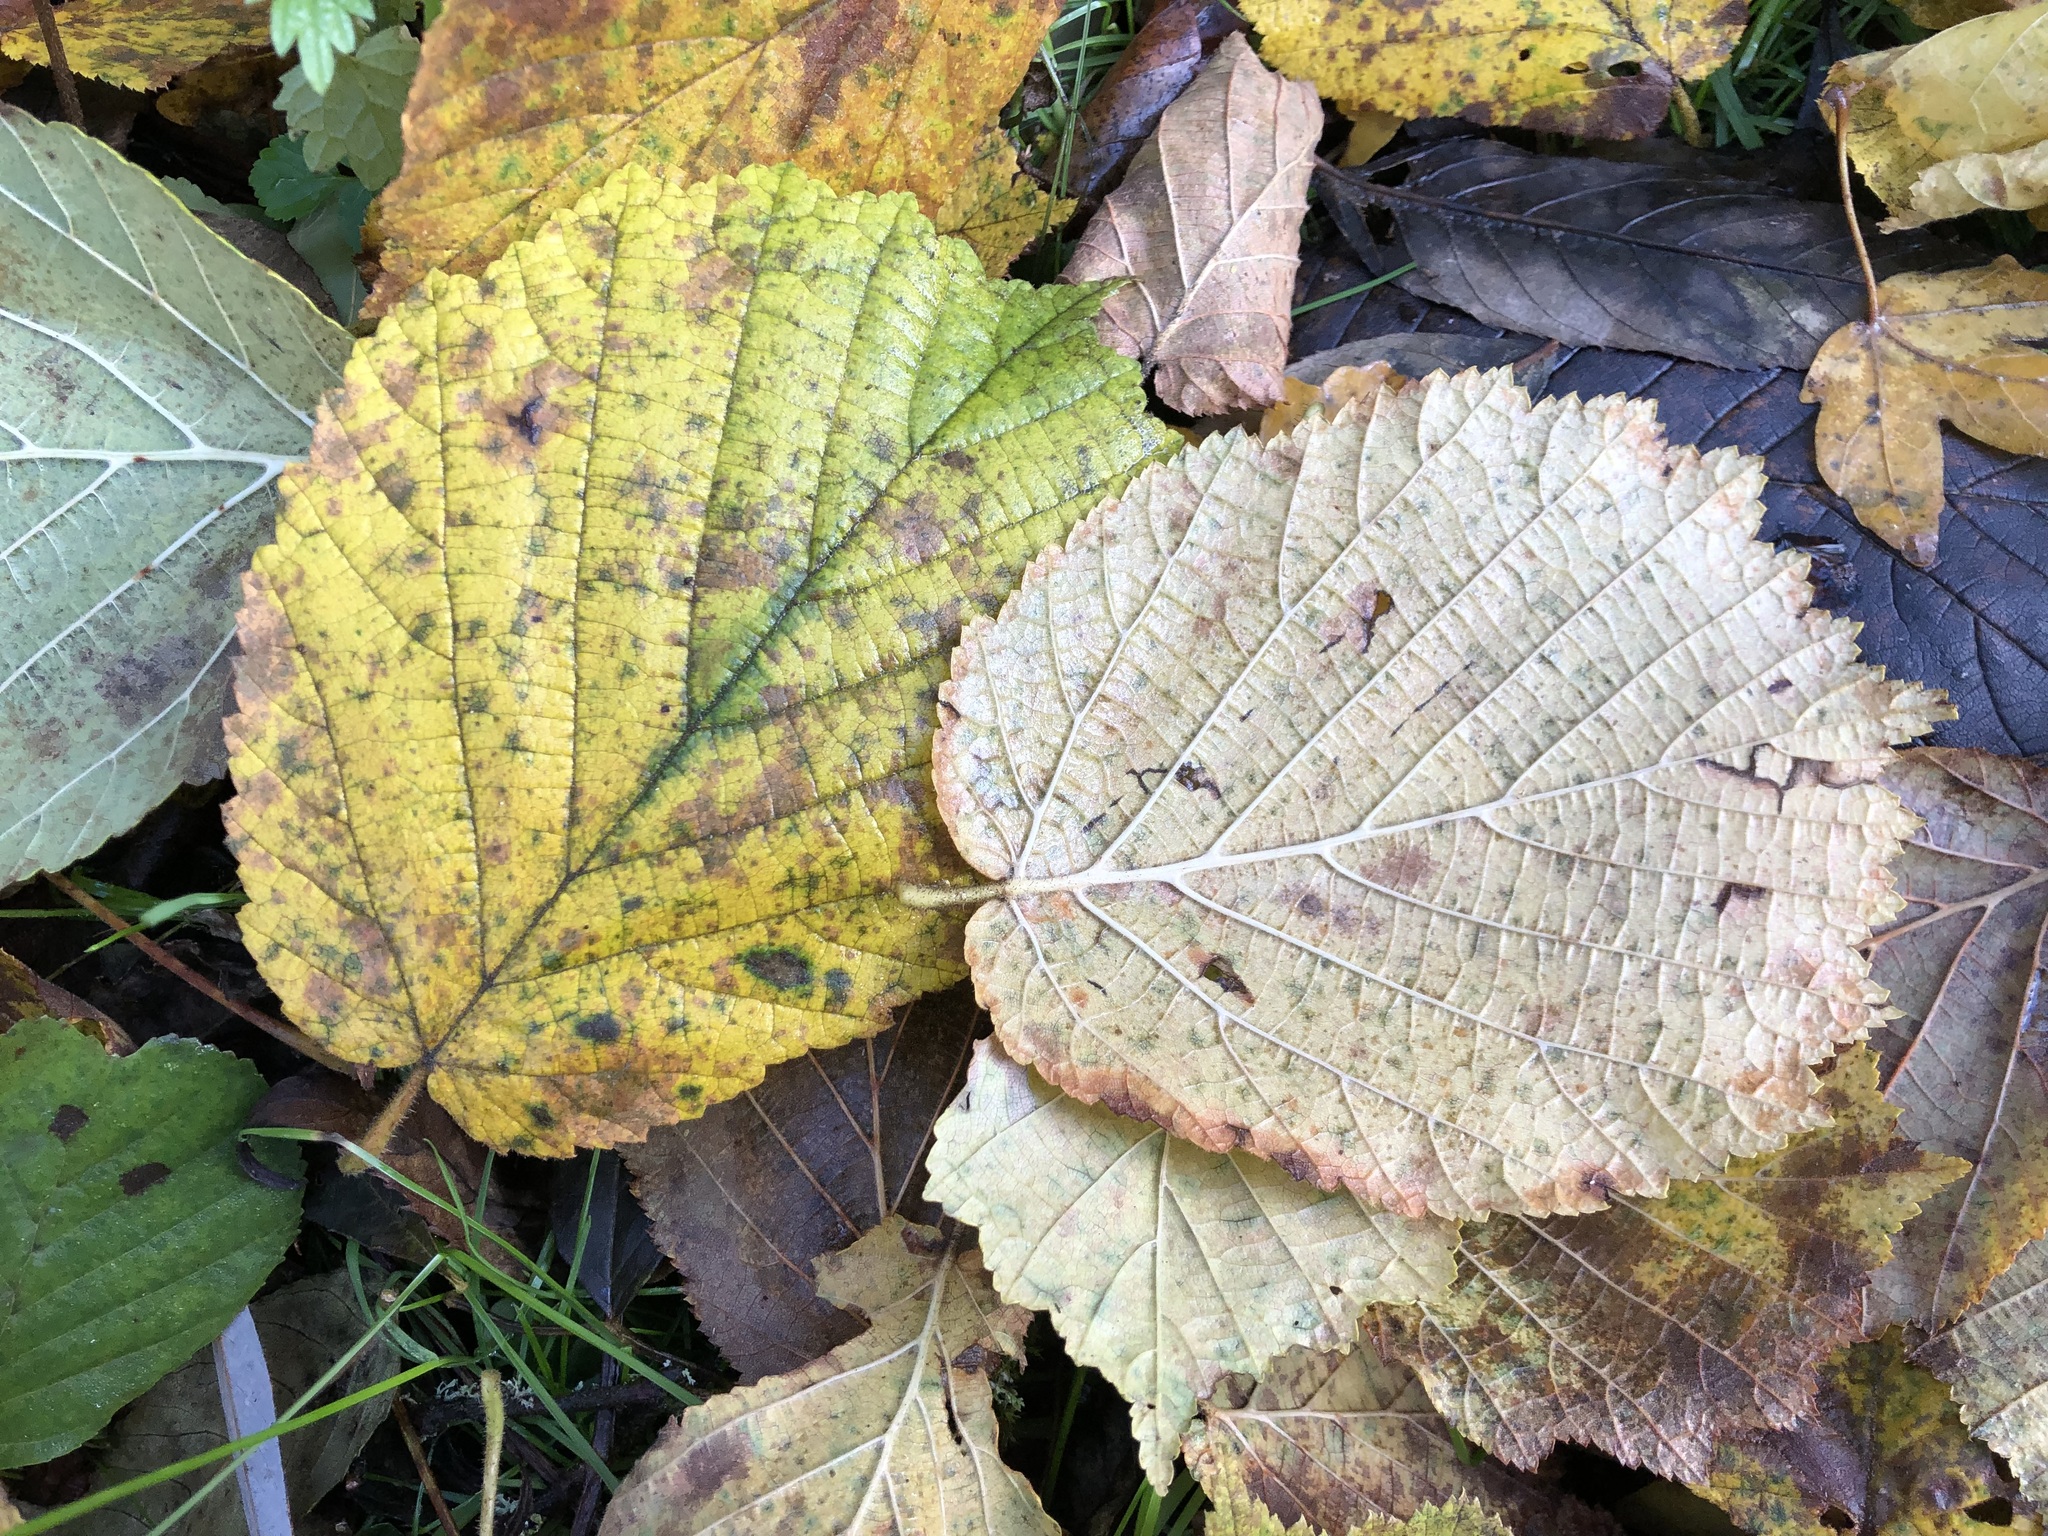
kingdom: Plantae
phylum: Tracheophyta
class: Magnoliopsida
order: Fagales
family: Betulaceae
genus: Corylus
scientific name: Corylus avellana
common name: European hazel
